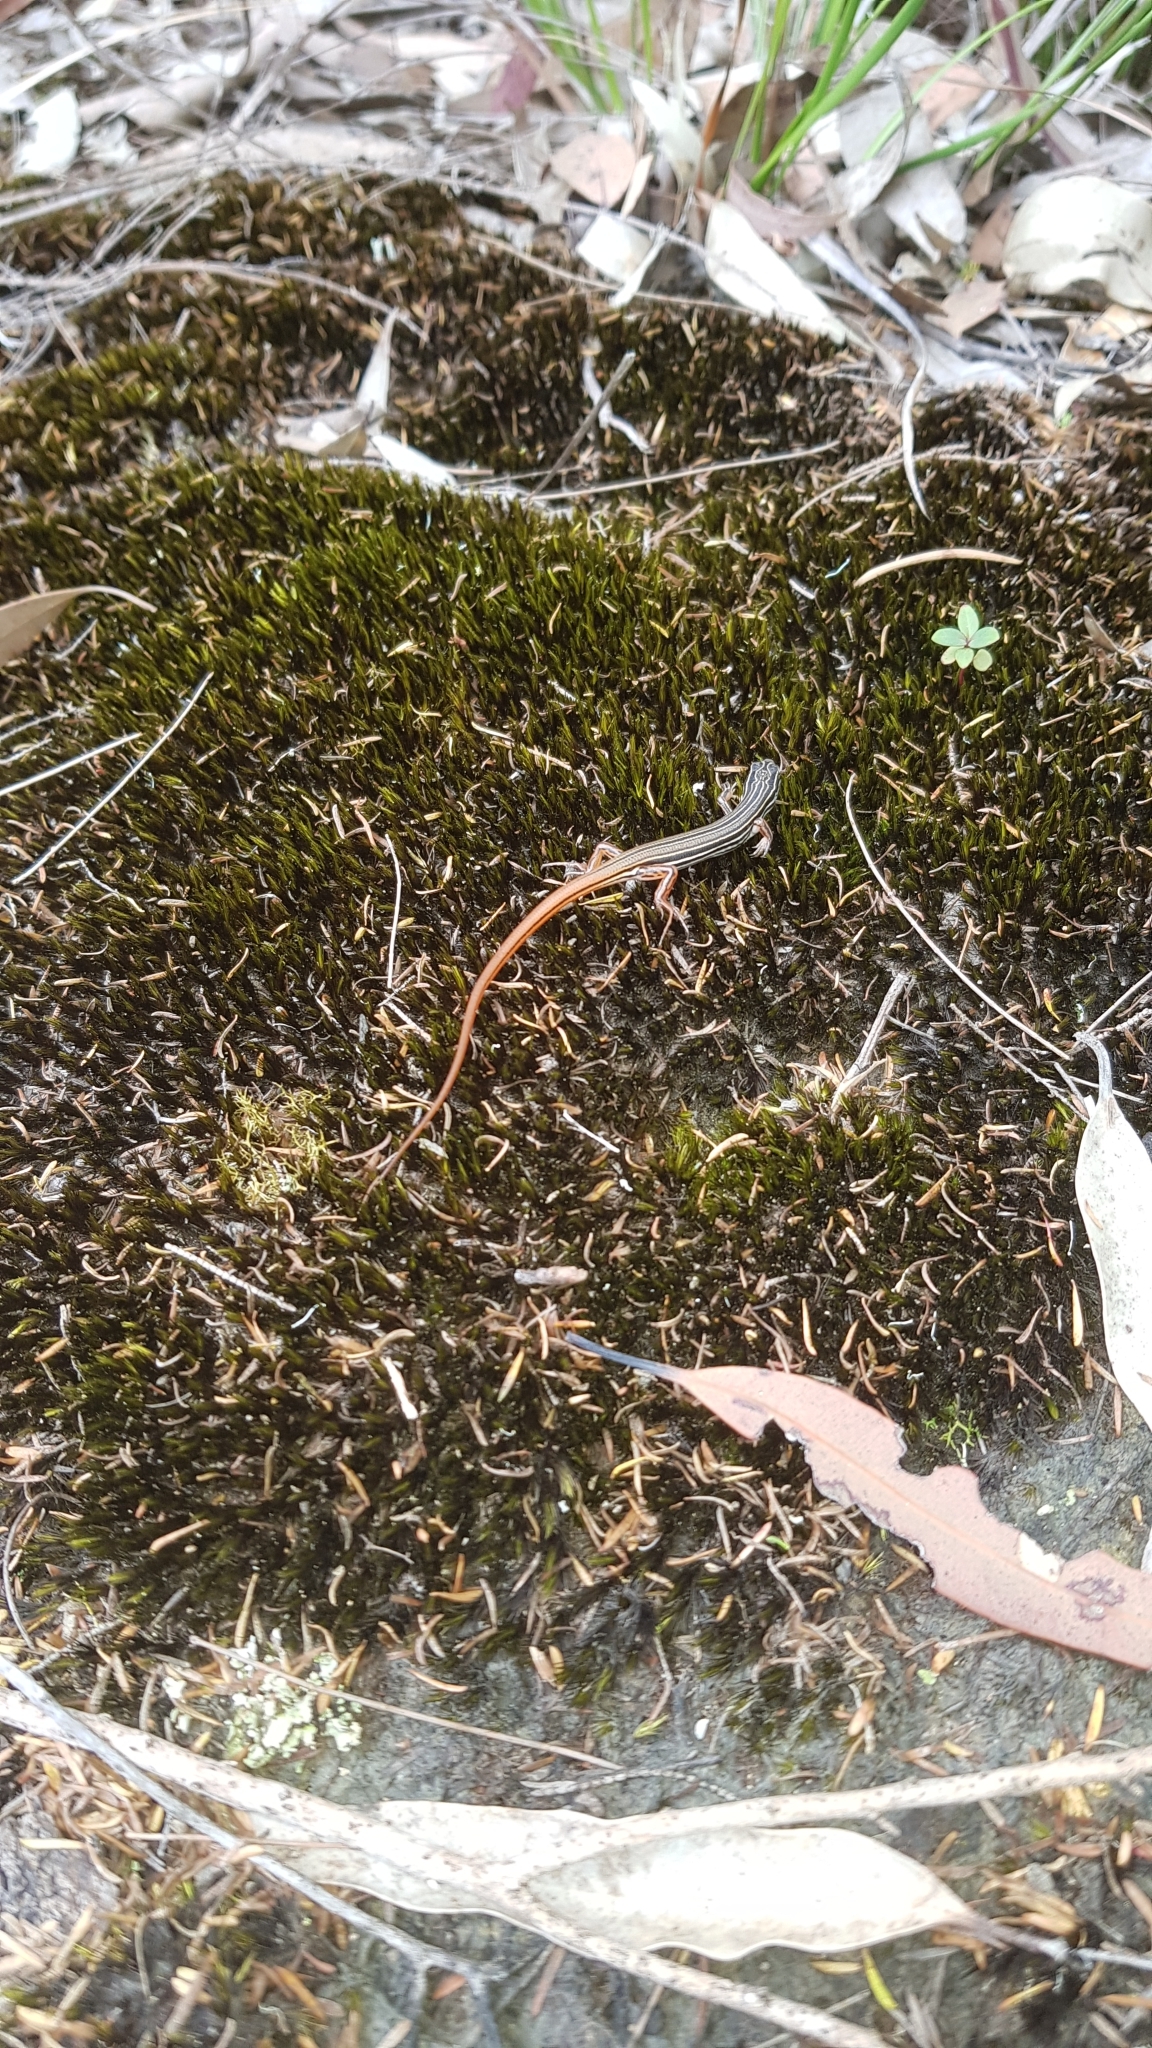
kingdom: Animalia
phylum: Chordata
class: Squamata
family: Scincidae
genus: Ctenotus
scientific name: Ctenotus taeniolatus
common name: Copper-tailed skink
